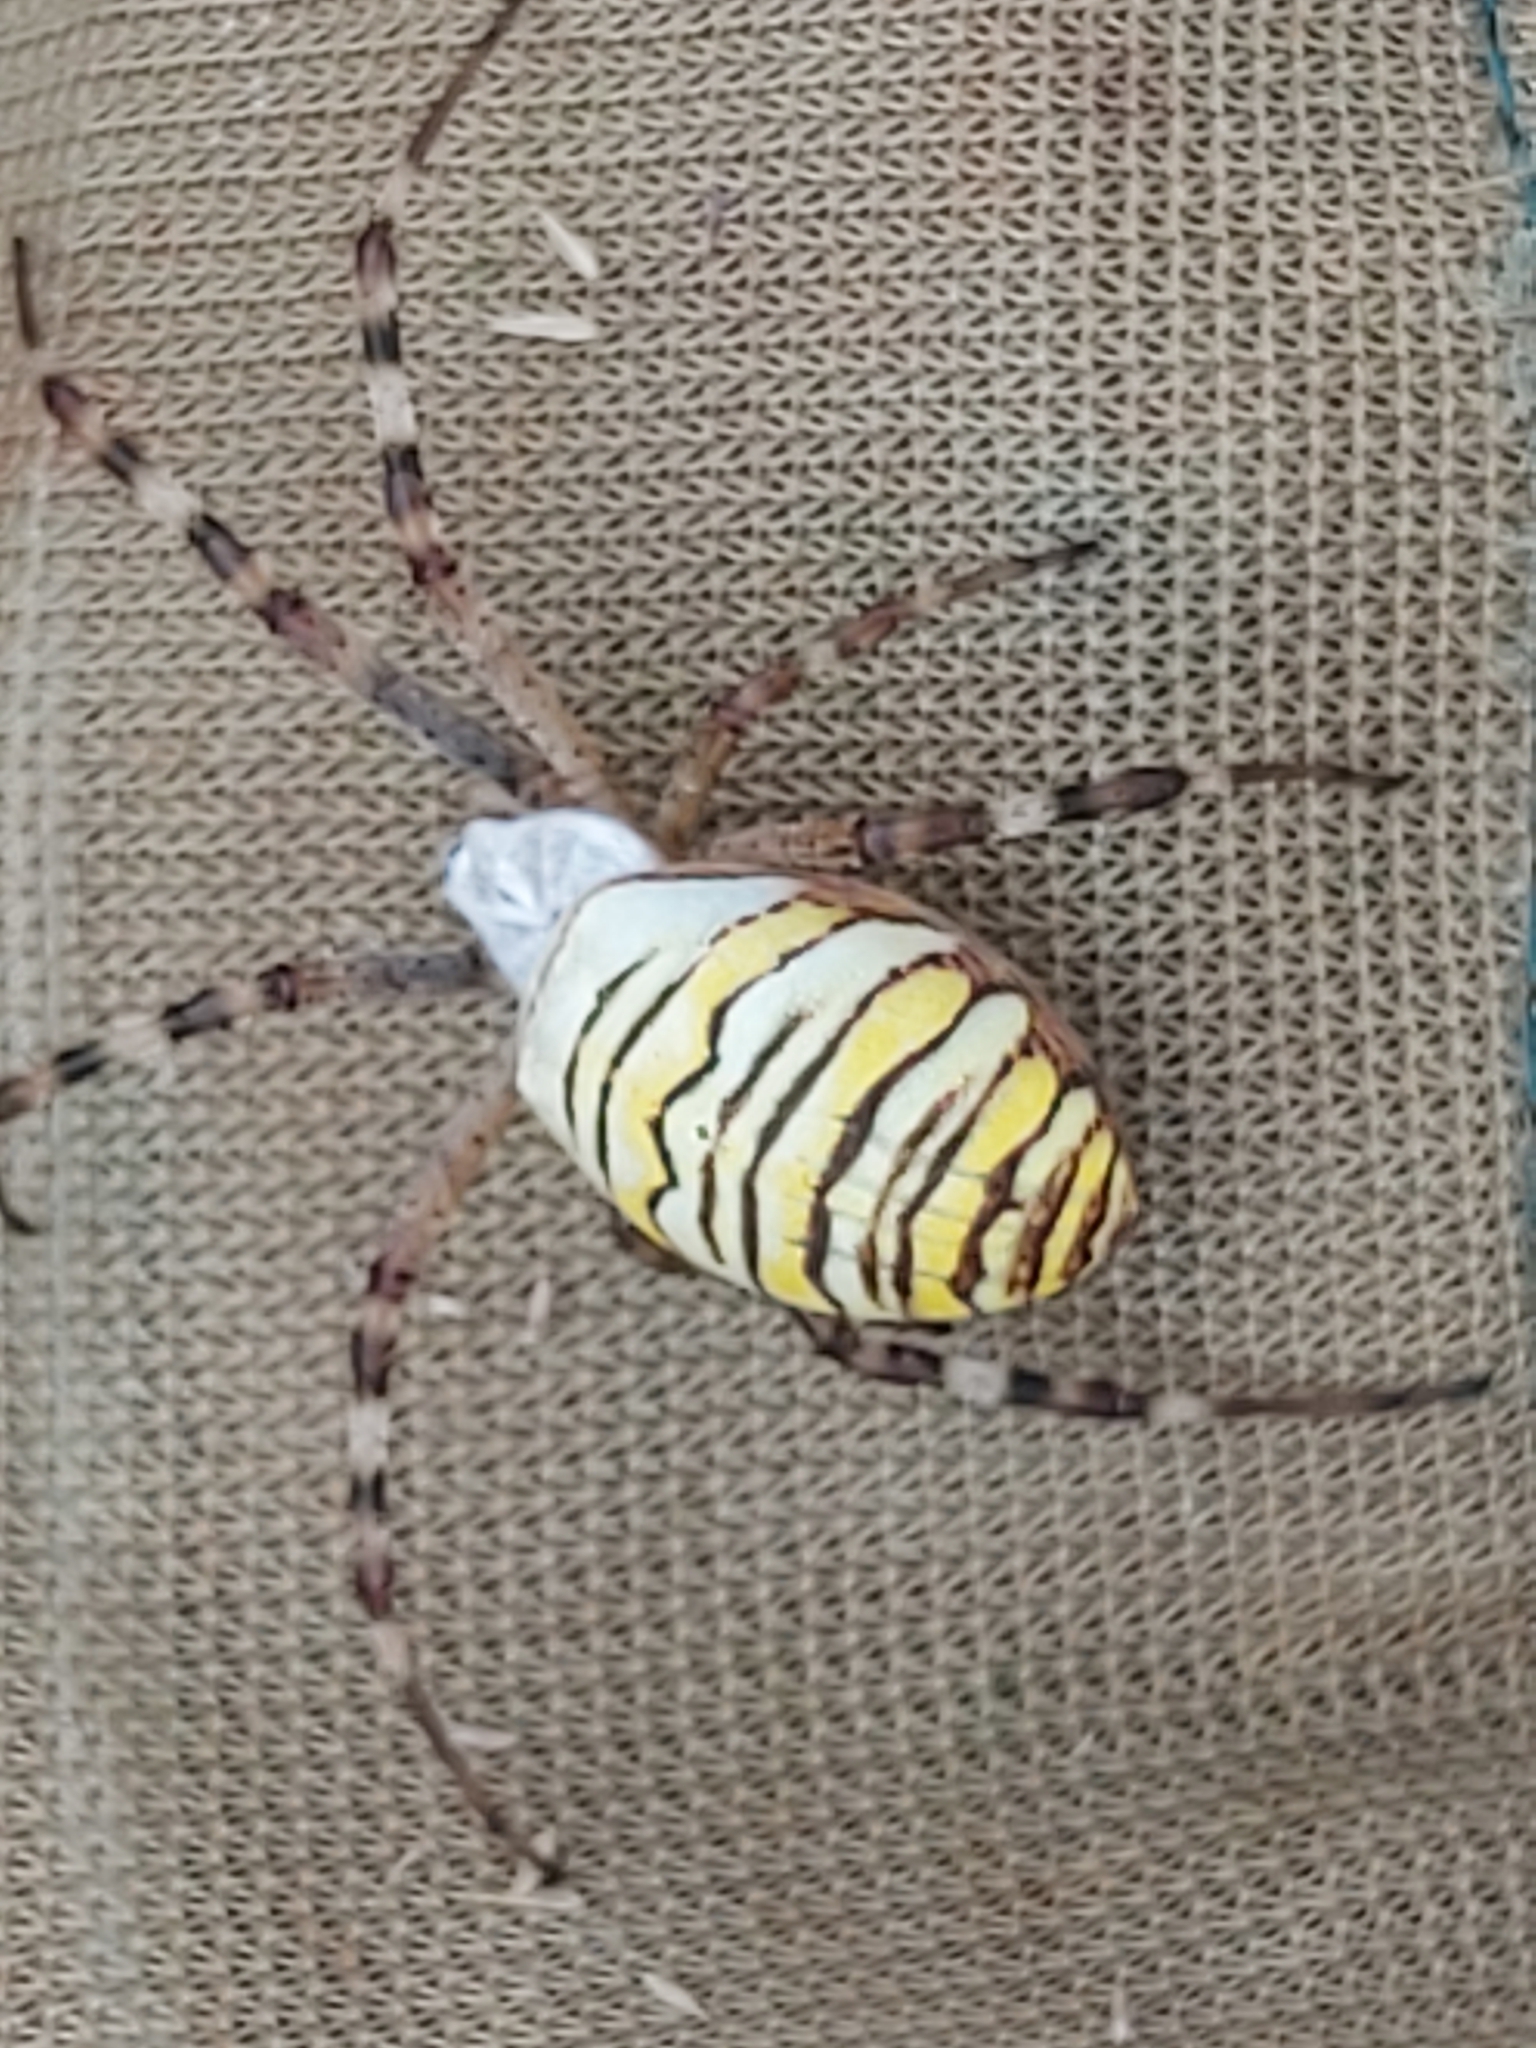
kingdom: Animalia
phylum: Arthropoda
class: Arachnida
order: Araneae
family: Araneidae
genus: Argiope
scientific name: Argiope bruennichi
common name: Wasp spider
